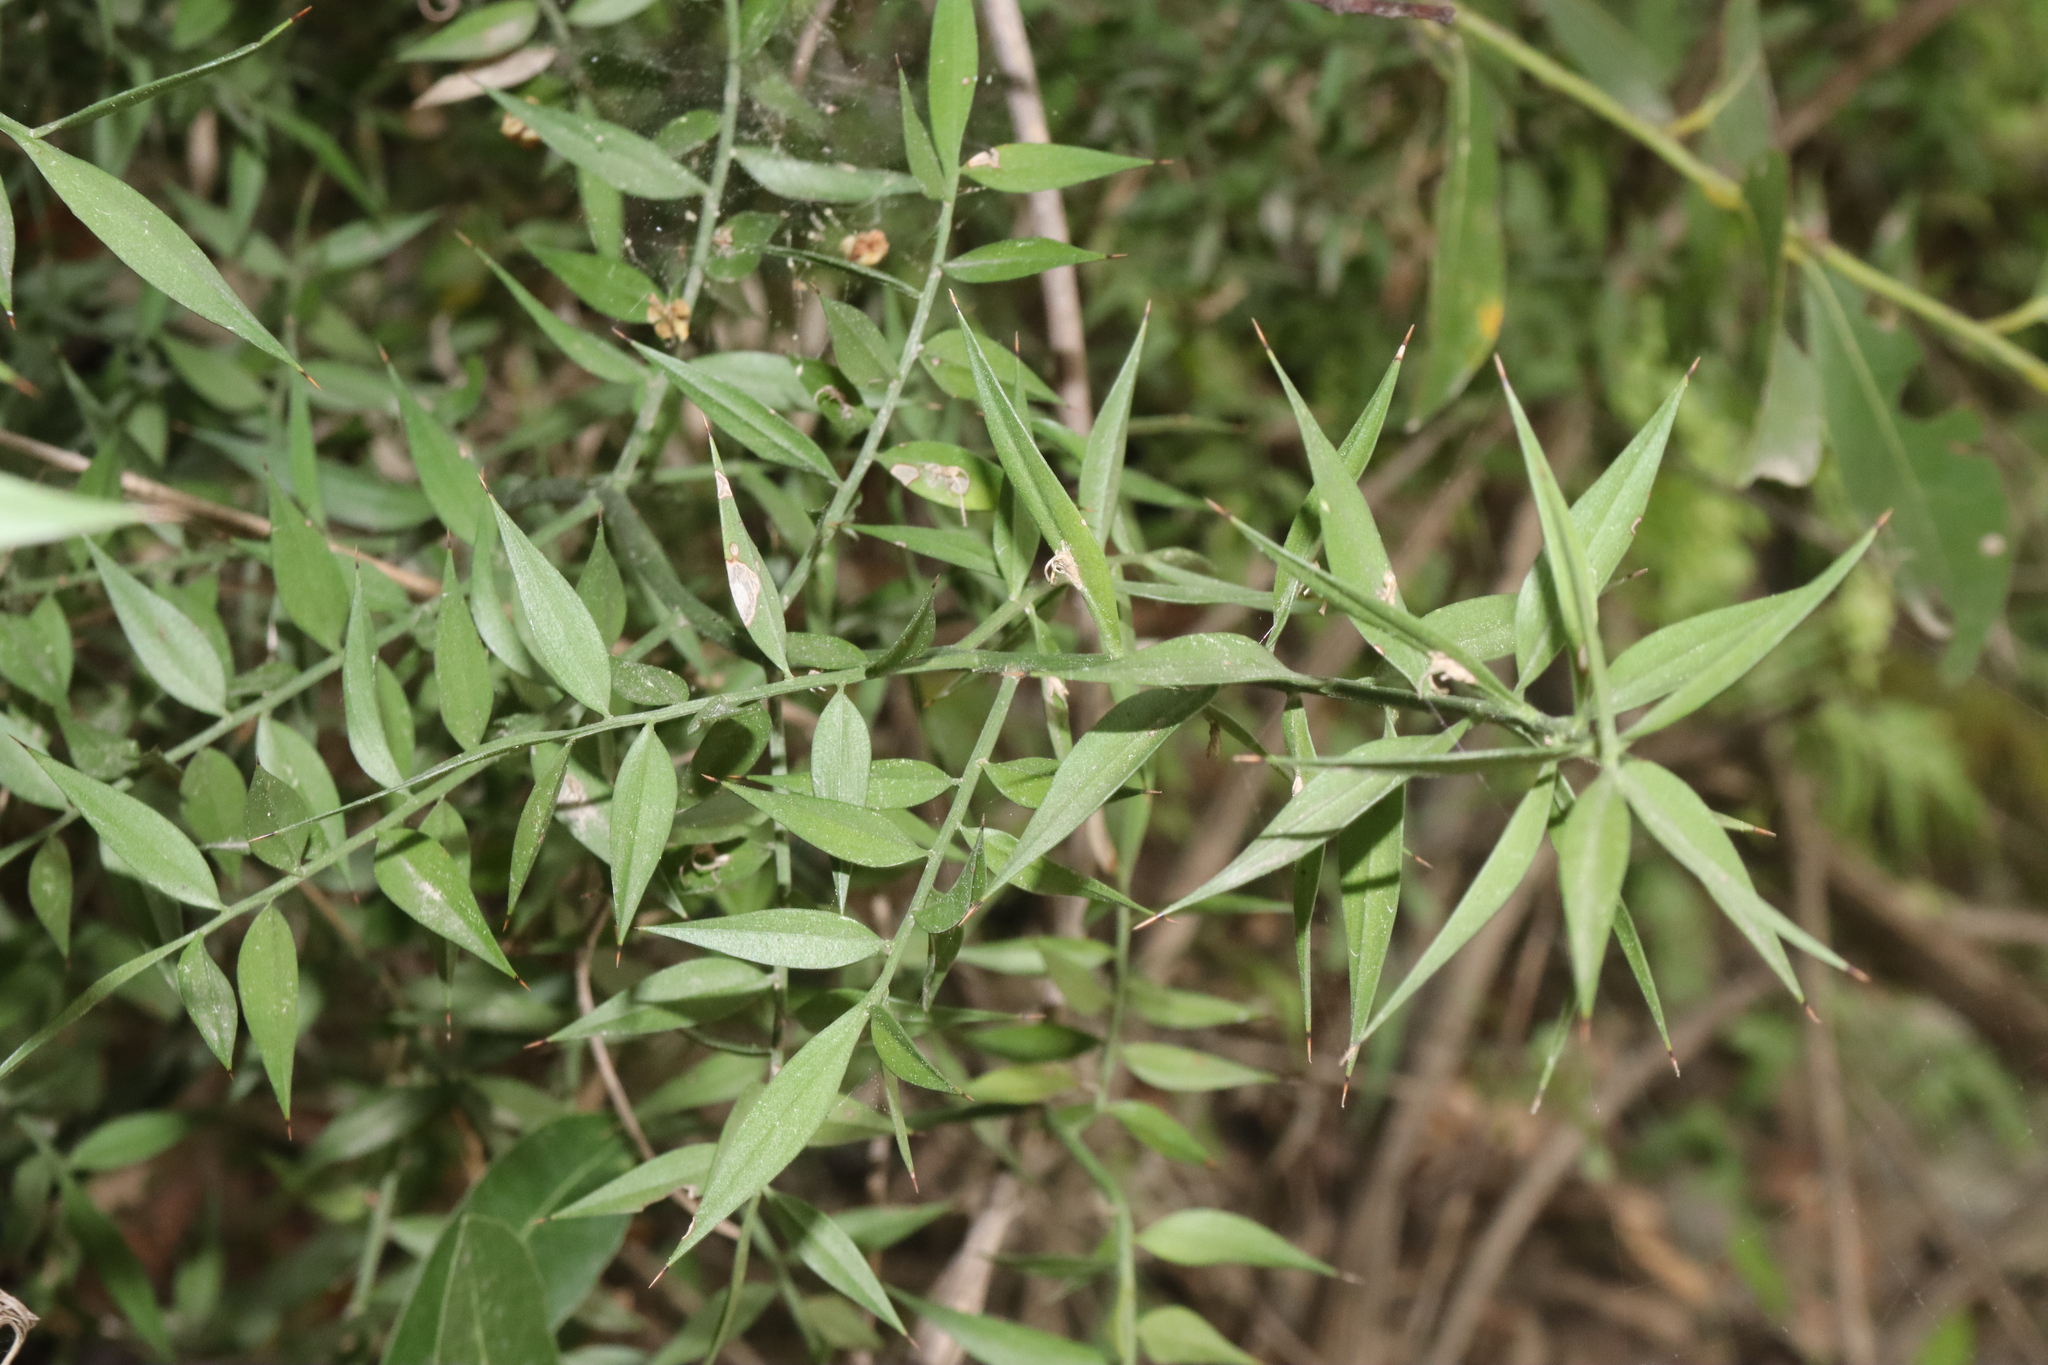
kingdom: Plantae
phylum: Tracheophyta
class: Liliopsida
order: Asparagales
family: Asparagaceae
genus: Ruscus
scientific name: Ruscus aculeatus
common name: Butcher's-broom
